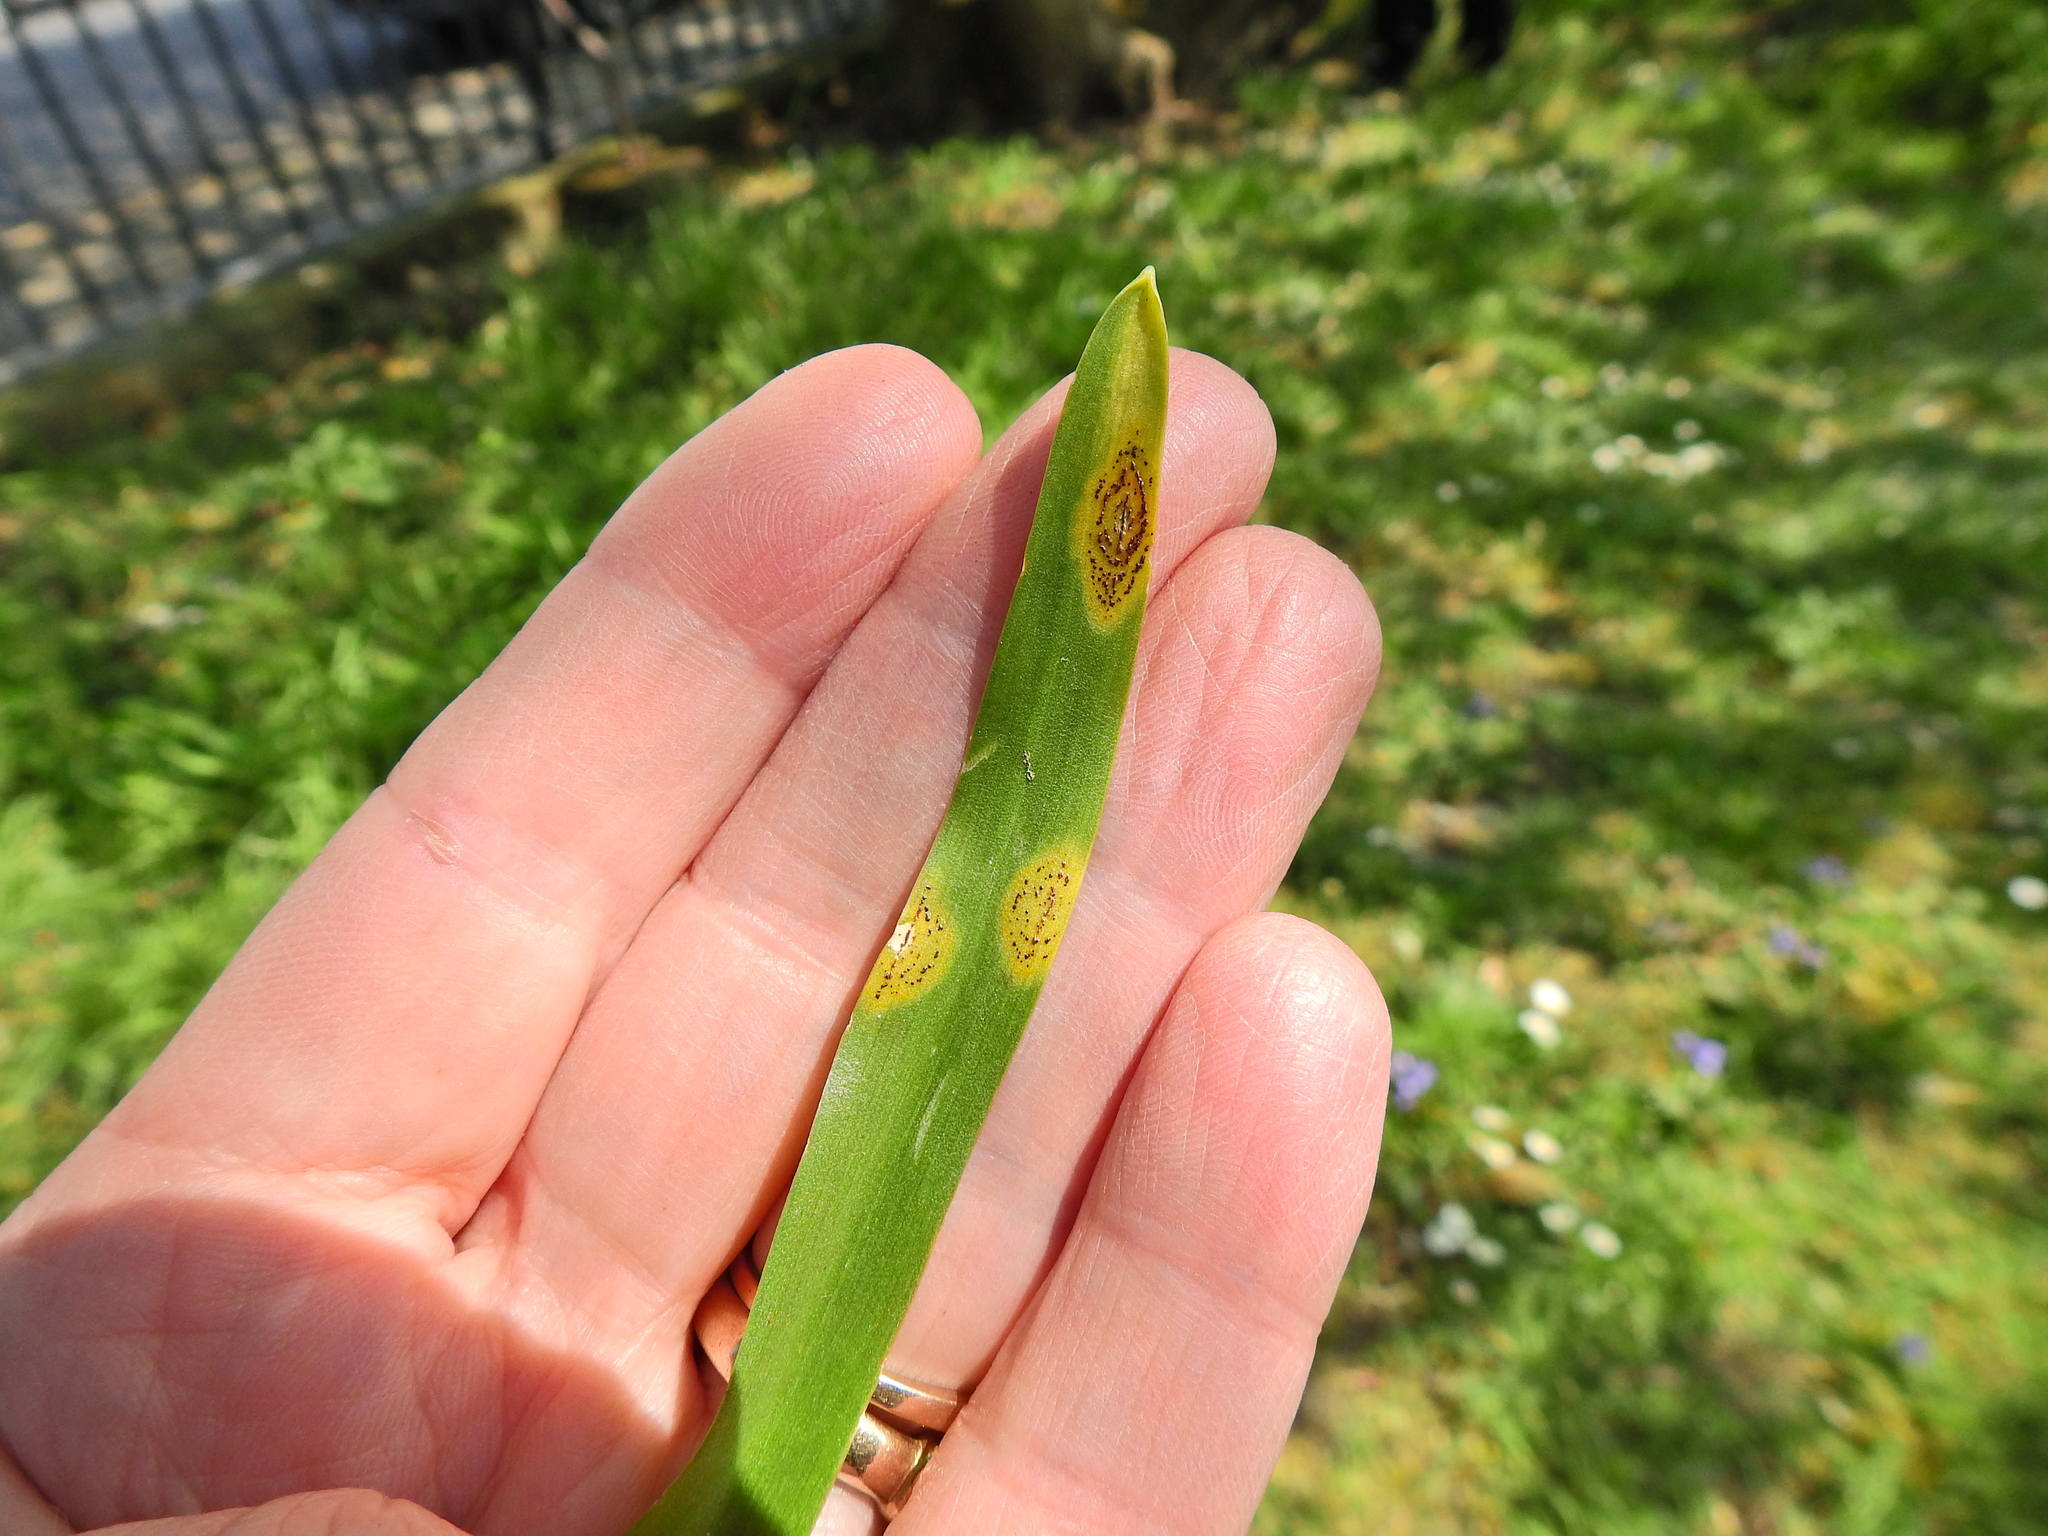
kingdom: Fungi
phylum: Basidiomycota
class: Pucciniomycetes
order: Pucciniales
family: Pucciniaceae
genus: Uromyces
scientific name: Uromyces hyacinthi
